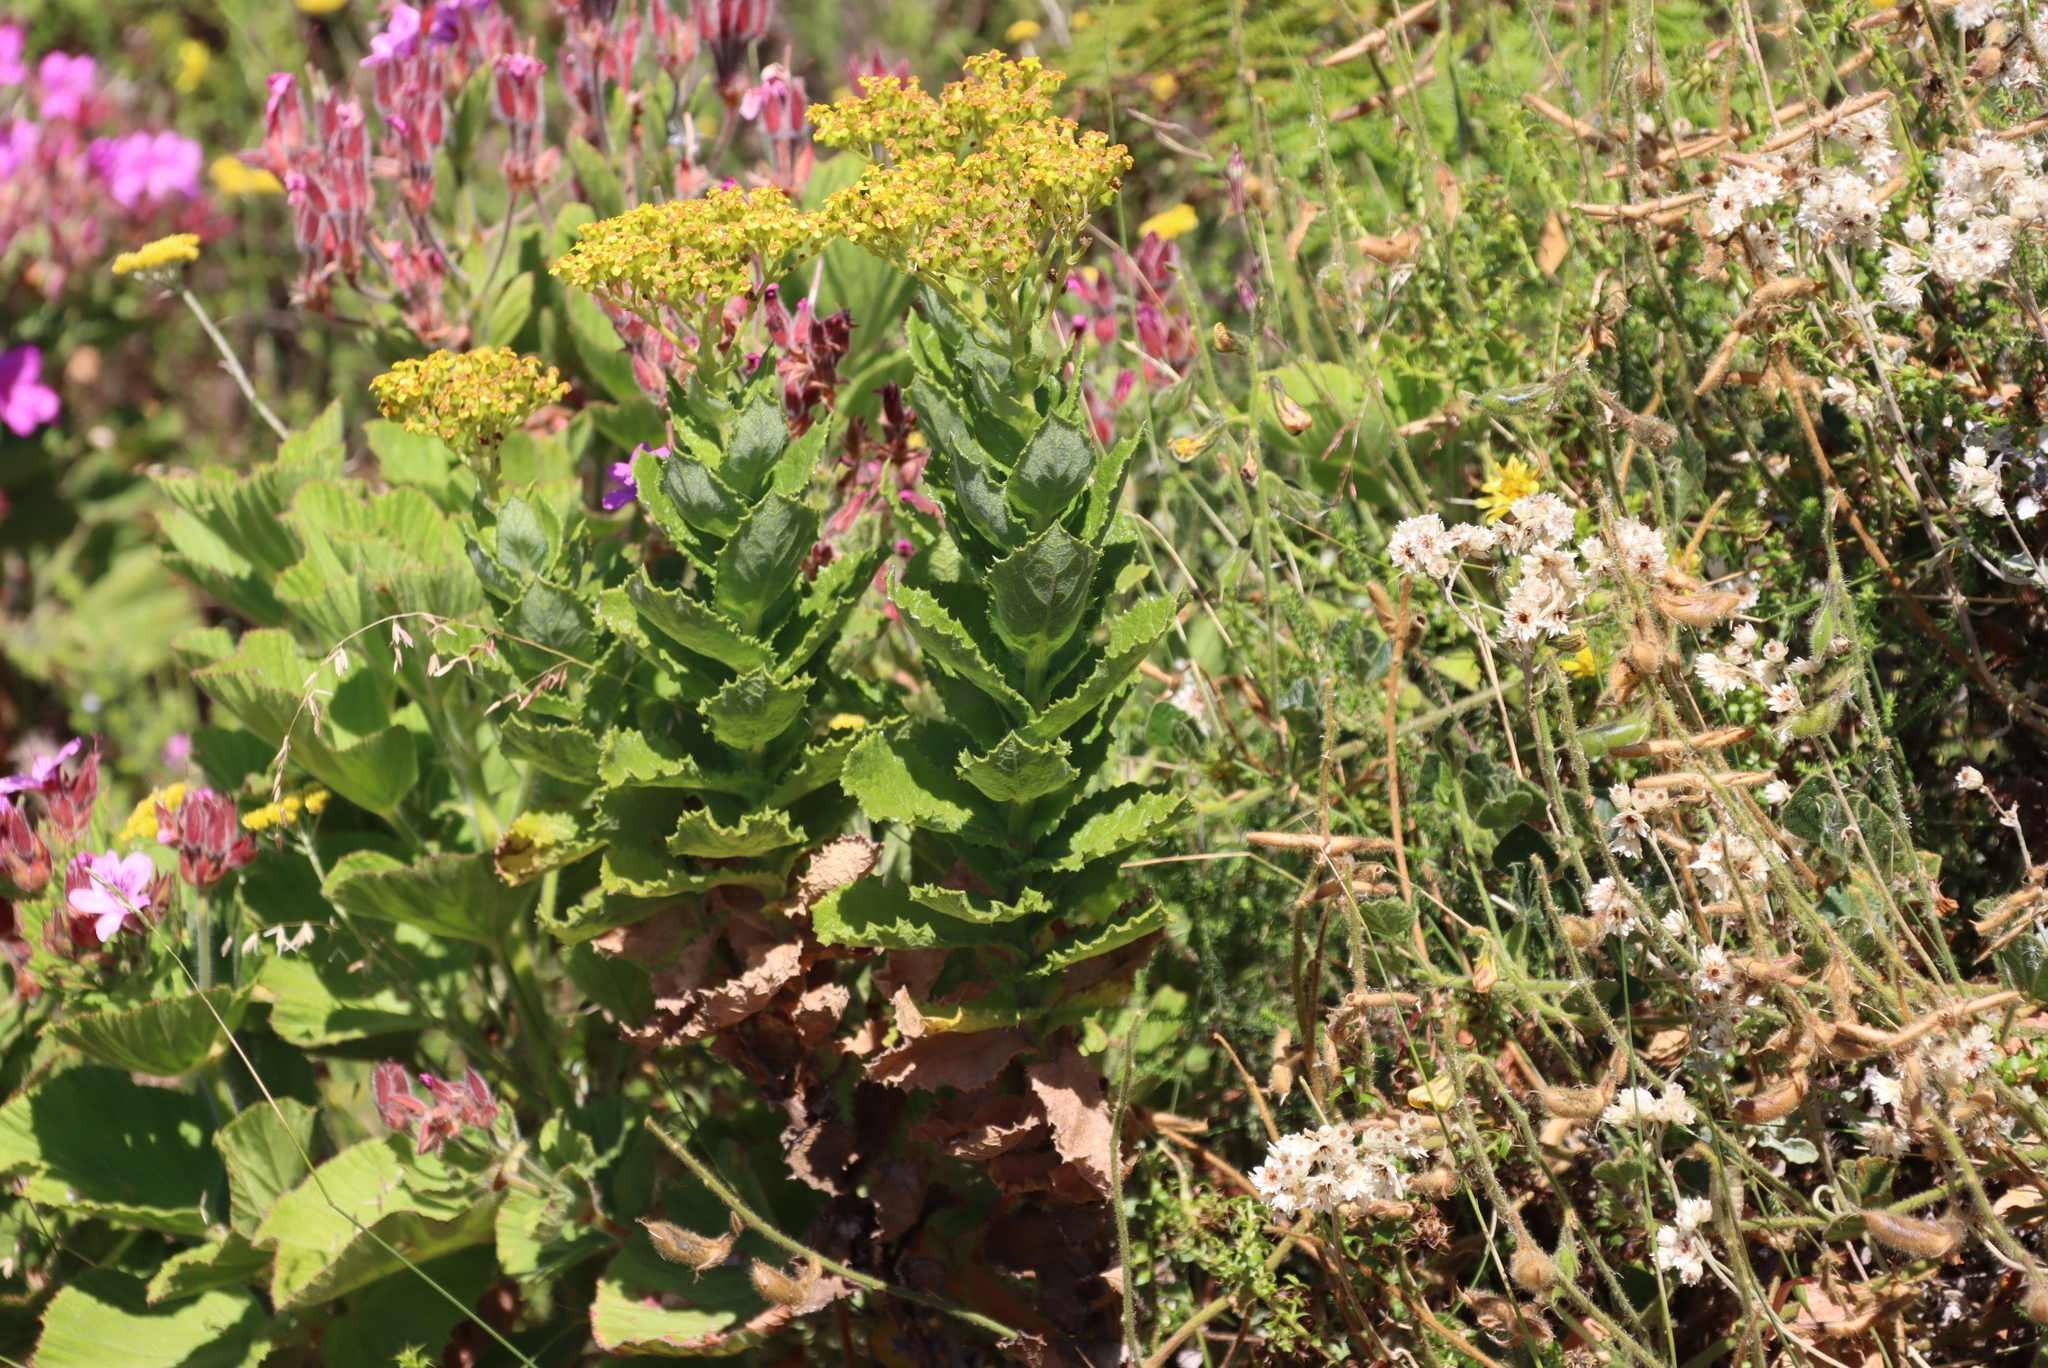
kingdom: Plantae
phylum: Tracheophyta
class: Magnoliopsida
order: Asterales
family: Asteraceae
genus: Senecio
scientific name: Senecio rigidus
